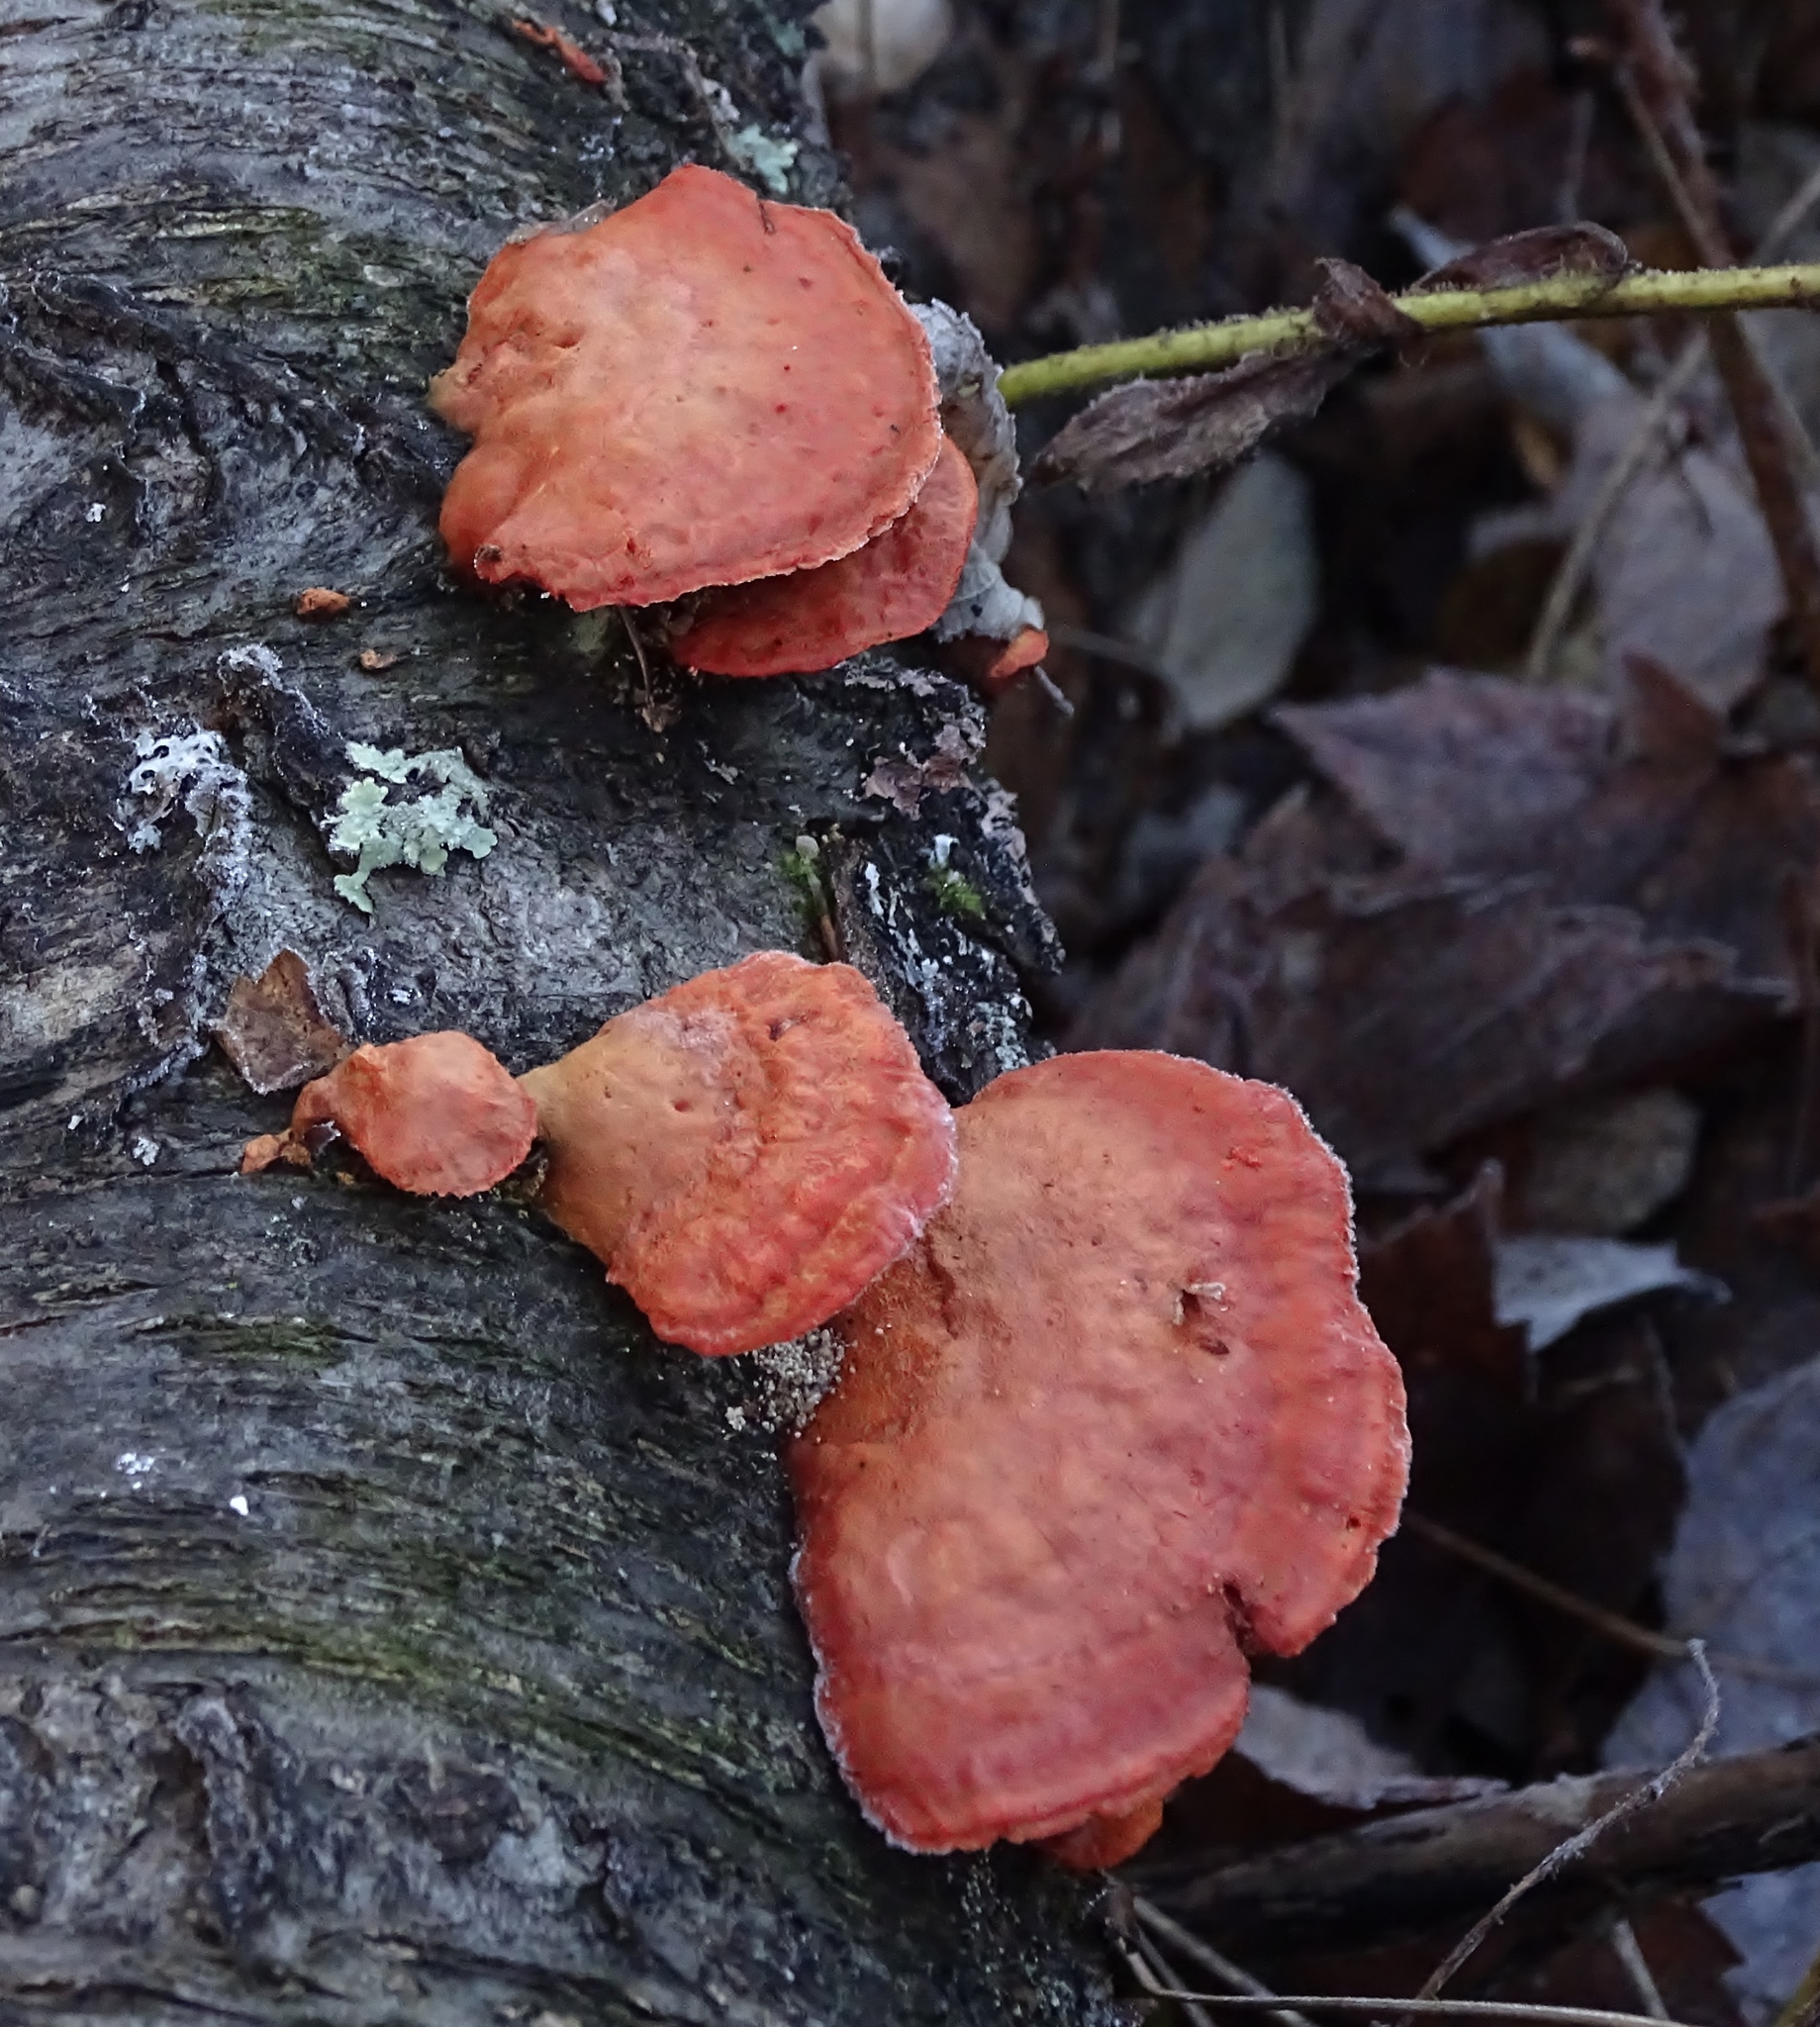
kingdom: Fungi
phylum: Basidiomycota
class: Agaricomycetes
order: Polyporales
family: Polyporaceae
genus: Trametes
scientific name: Trametes cinnabarina
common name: Northern cinnabar polypore
